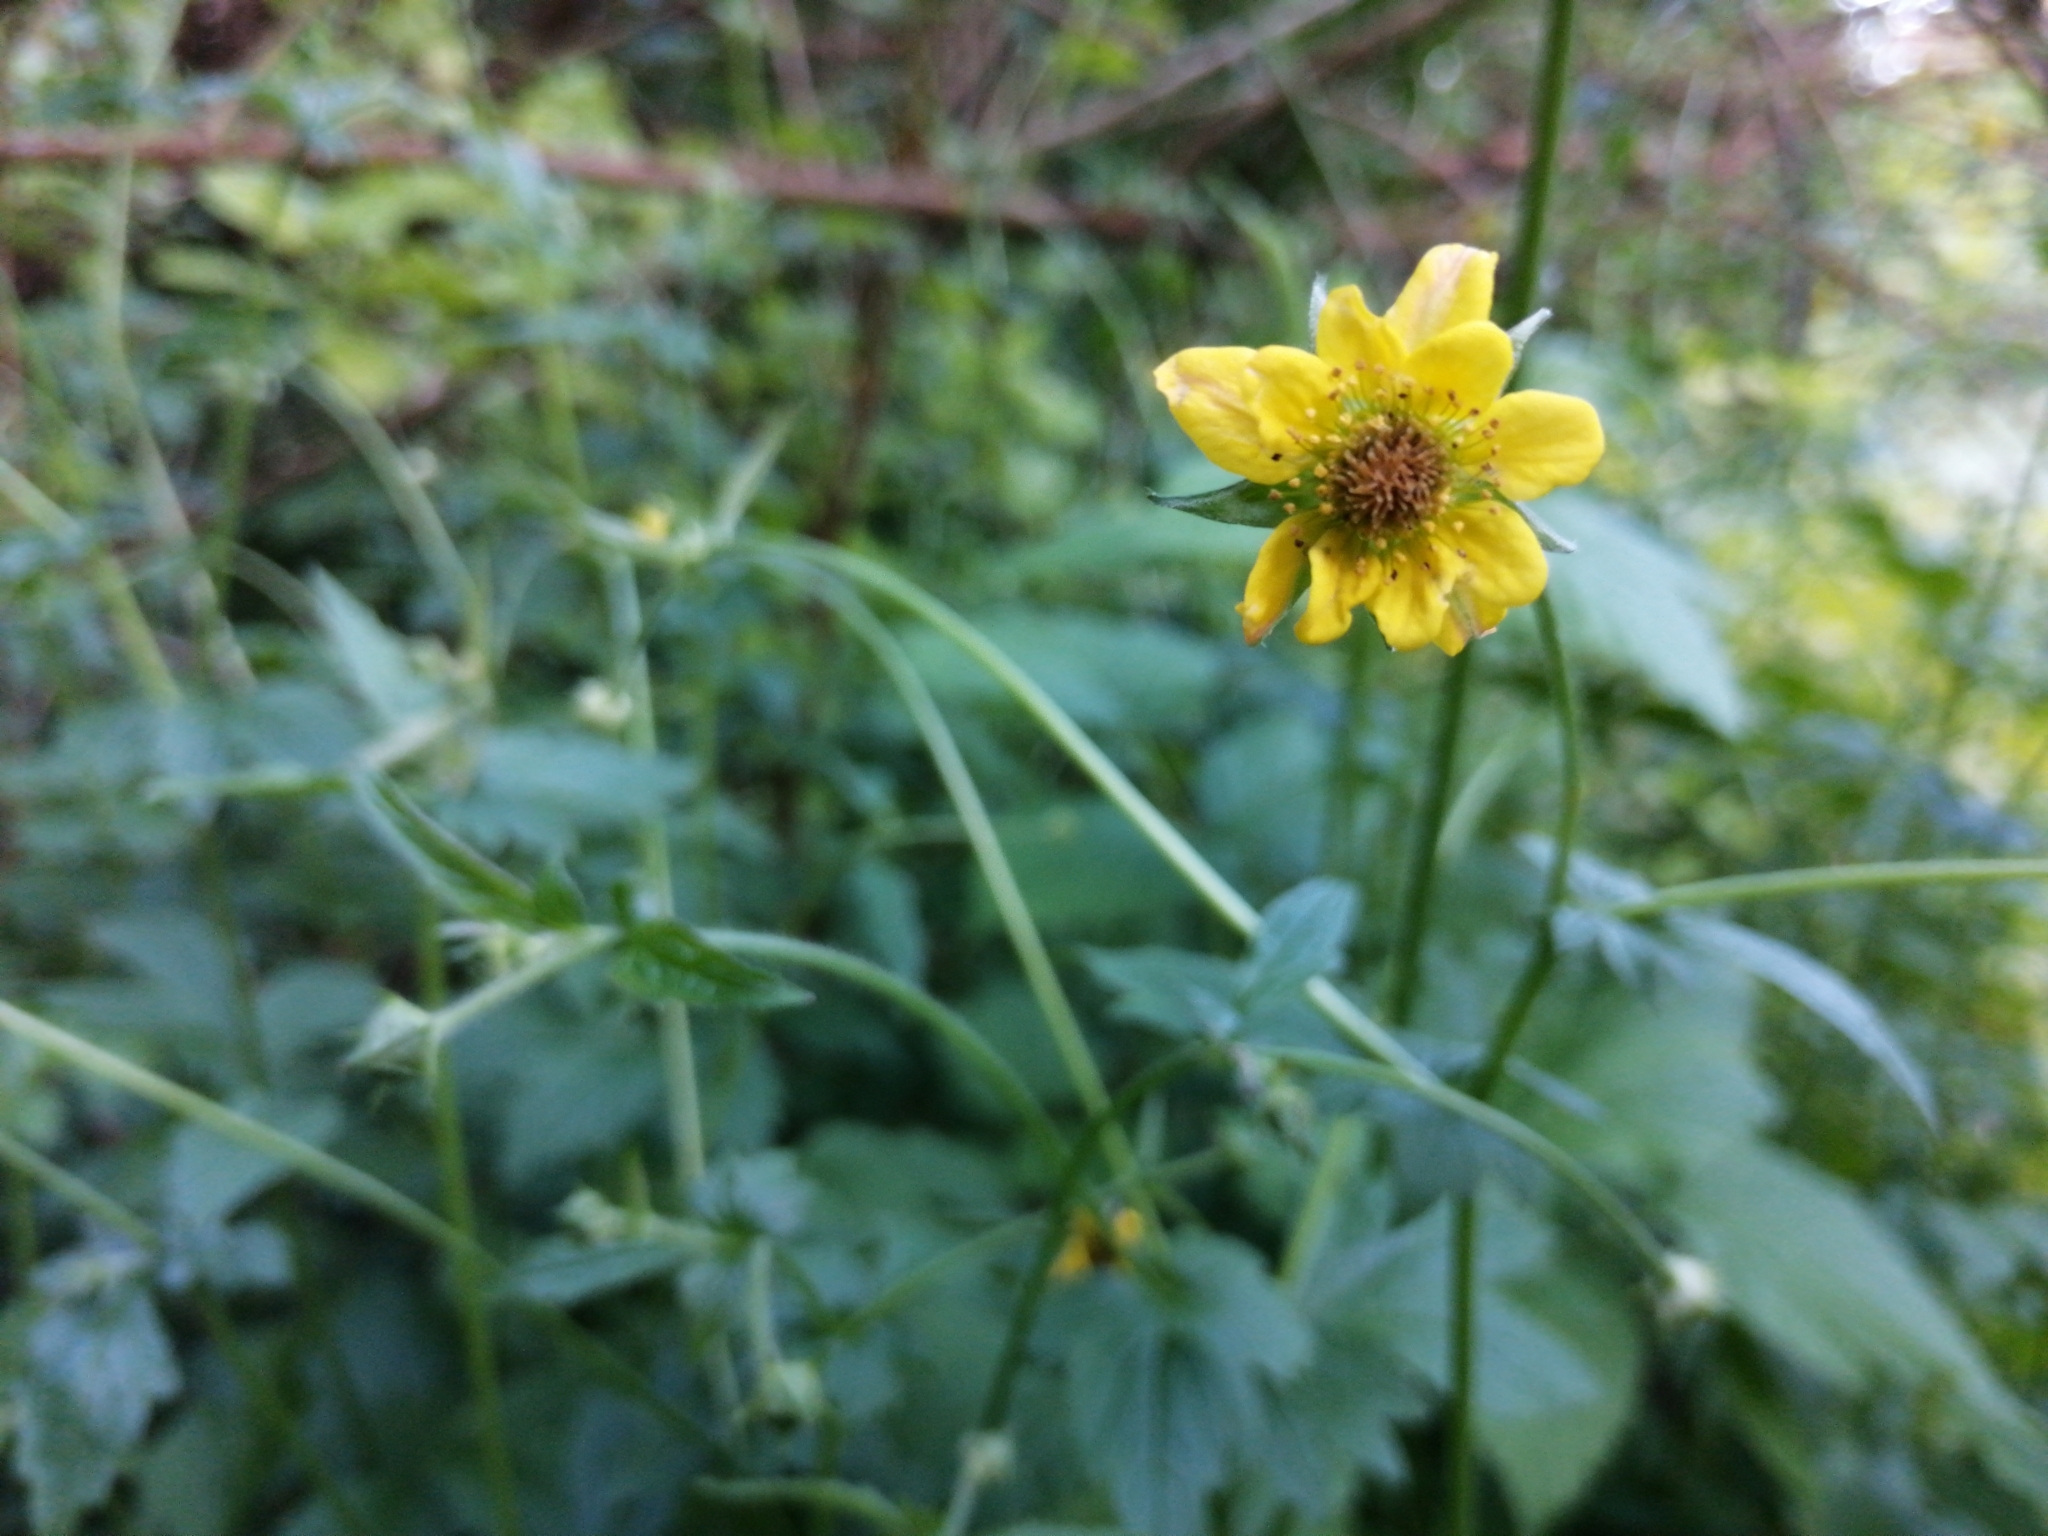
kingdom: Plantae
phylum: Tracheophyta
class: Magnoliopsida
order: Rosales
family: Rosaceae
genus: Geum
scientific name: Geum urbanum
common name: Wood avens
